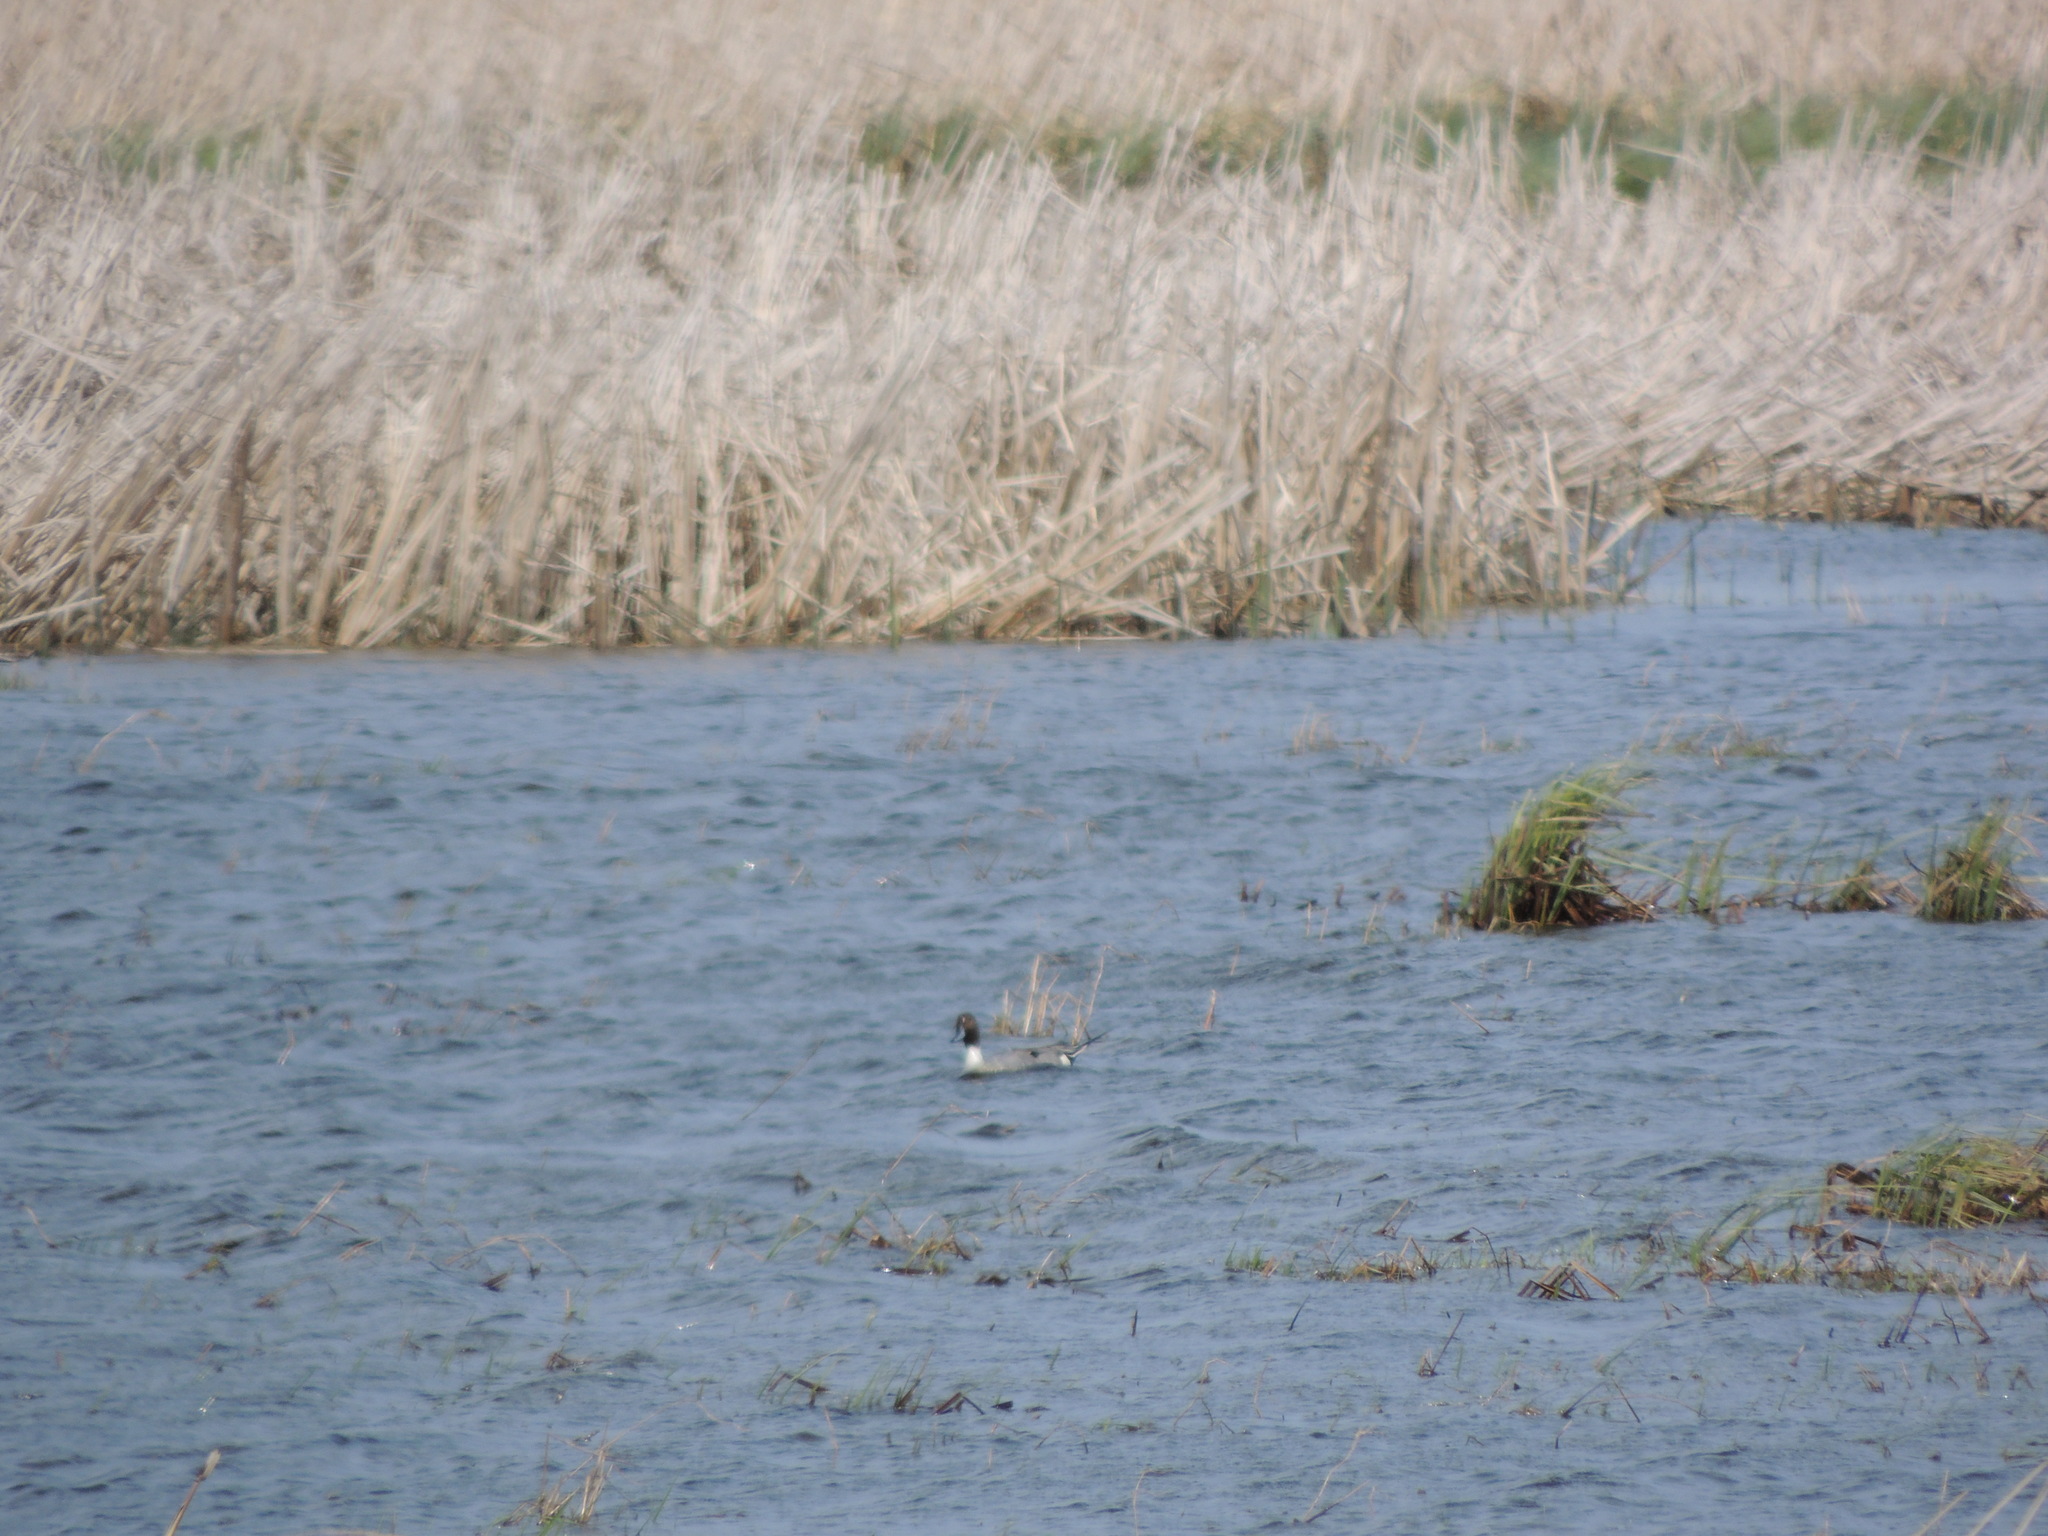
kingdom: Animalia
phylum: Chordata
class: Aves
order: Anseriformes
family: Anatidae
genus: Anas
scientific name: Anas acuta
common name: Northern pintail
